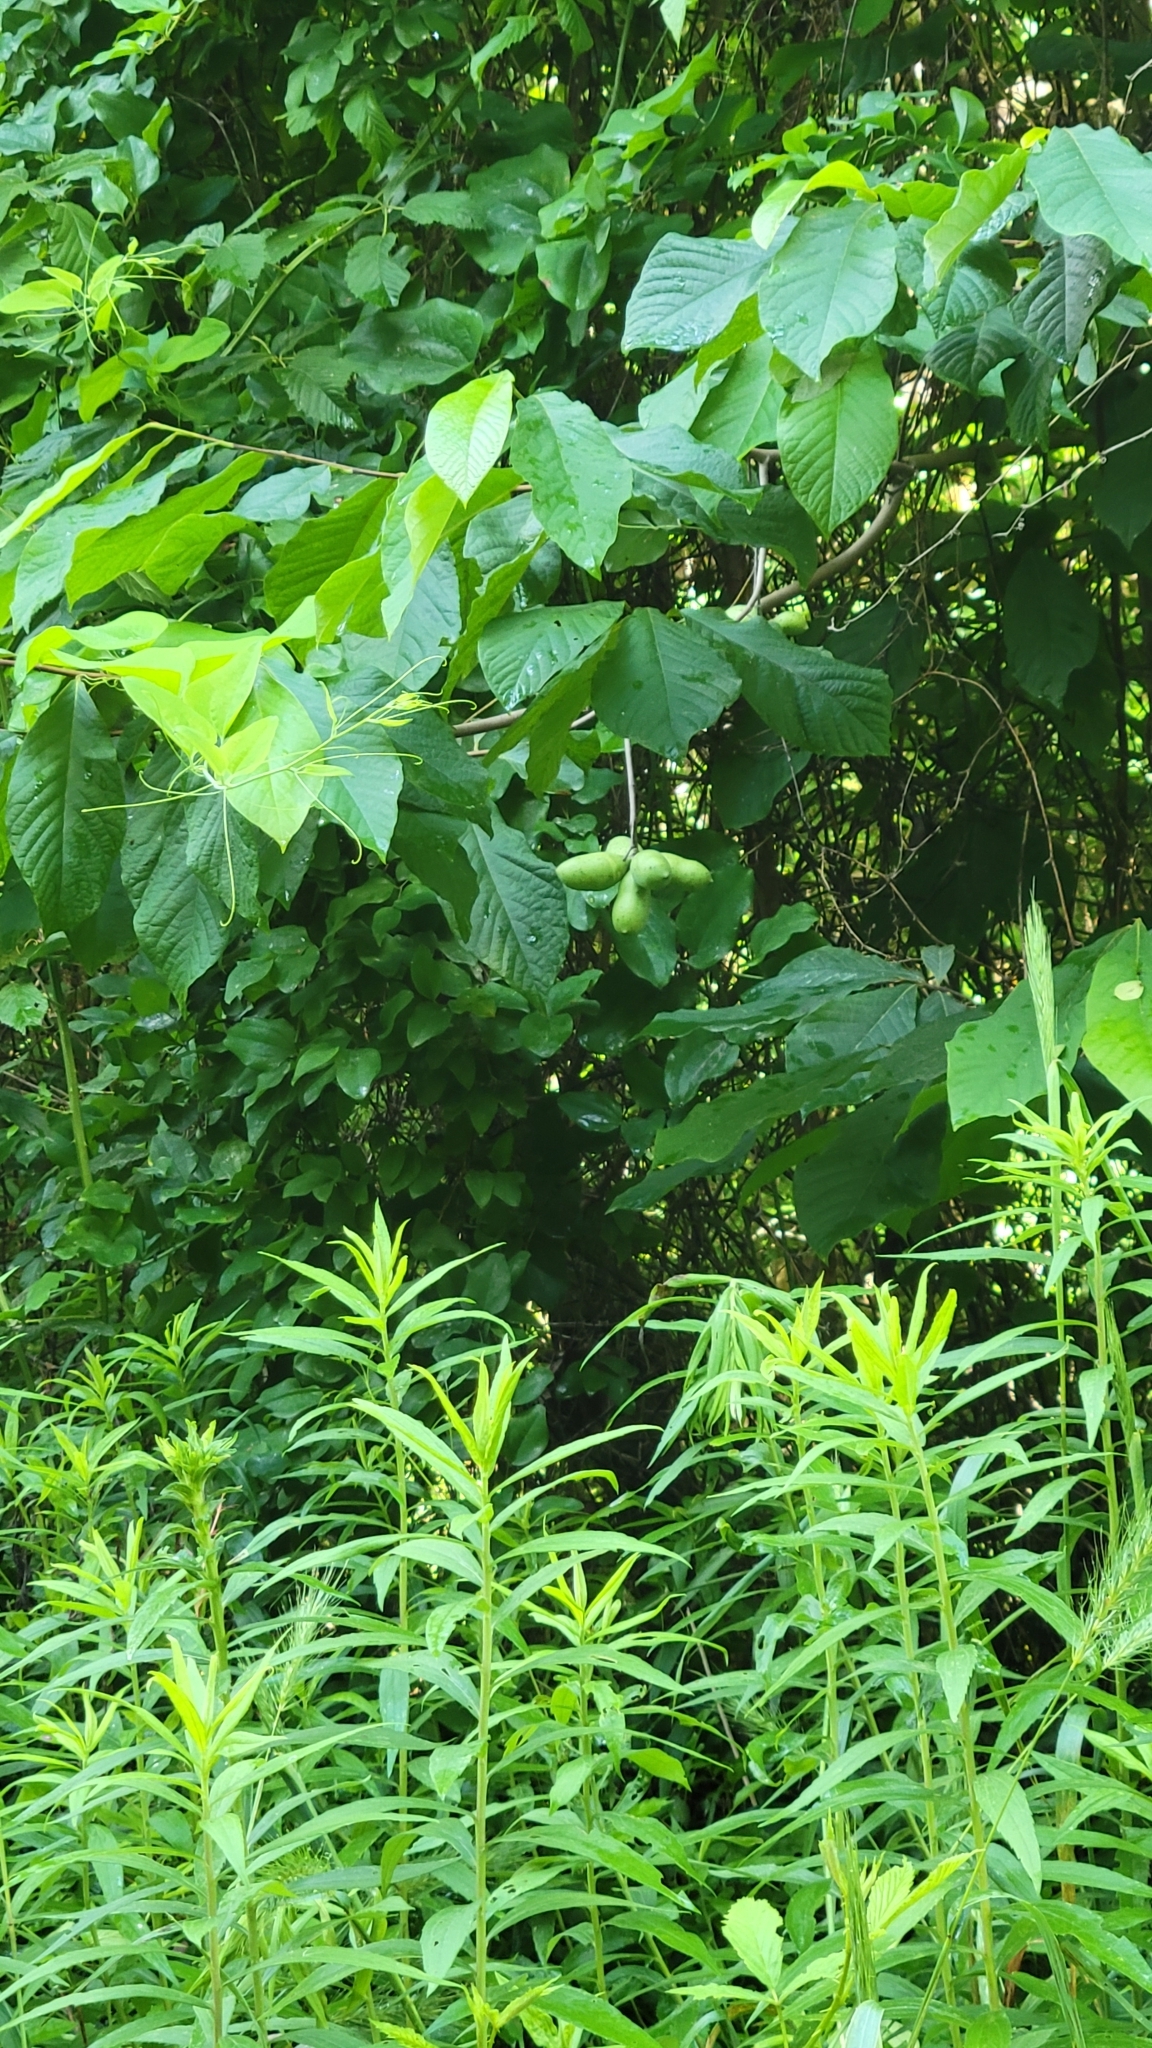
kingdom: Plantae
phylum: Tracheophyta
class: Magnoliopsida
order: Magnoliales
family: Annonaceae
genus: Asimina
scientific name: Asimina triloba
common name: Dog-banana
